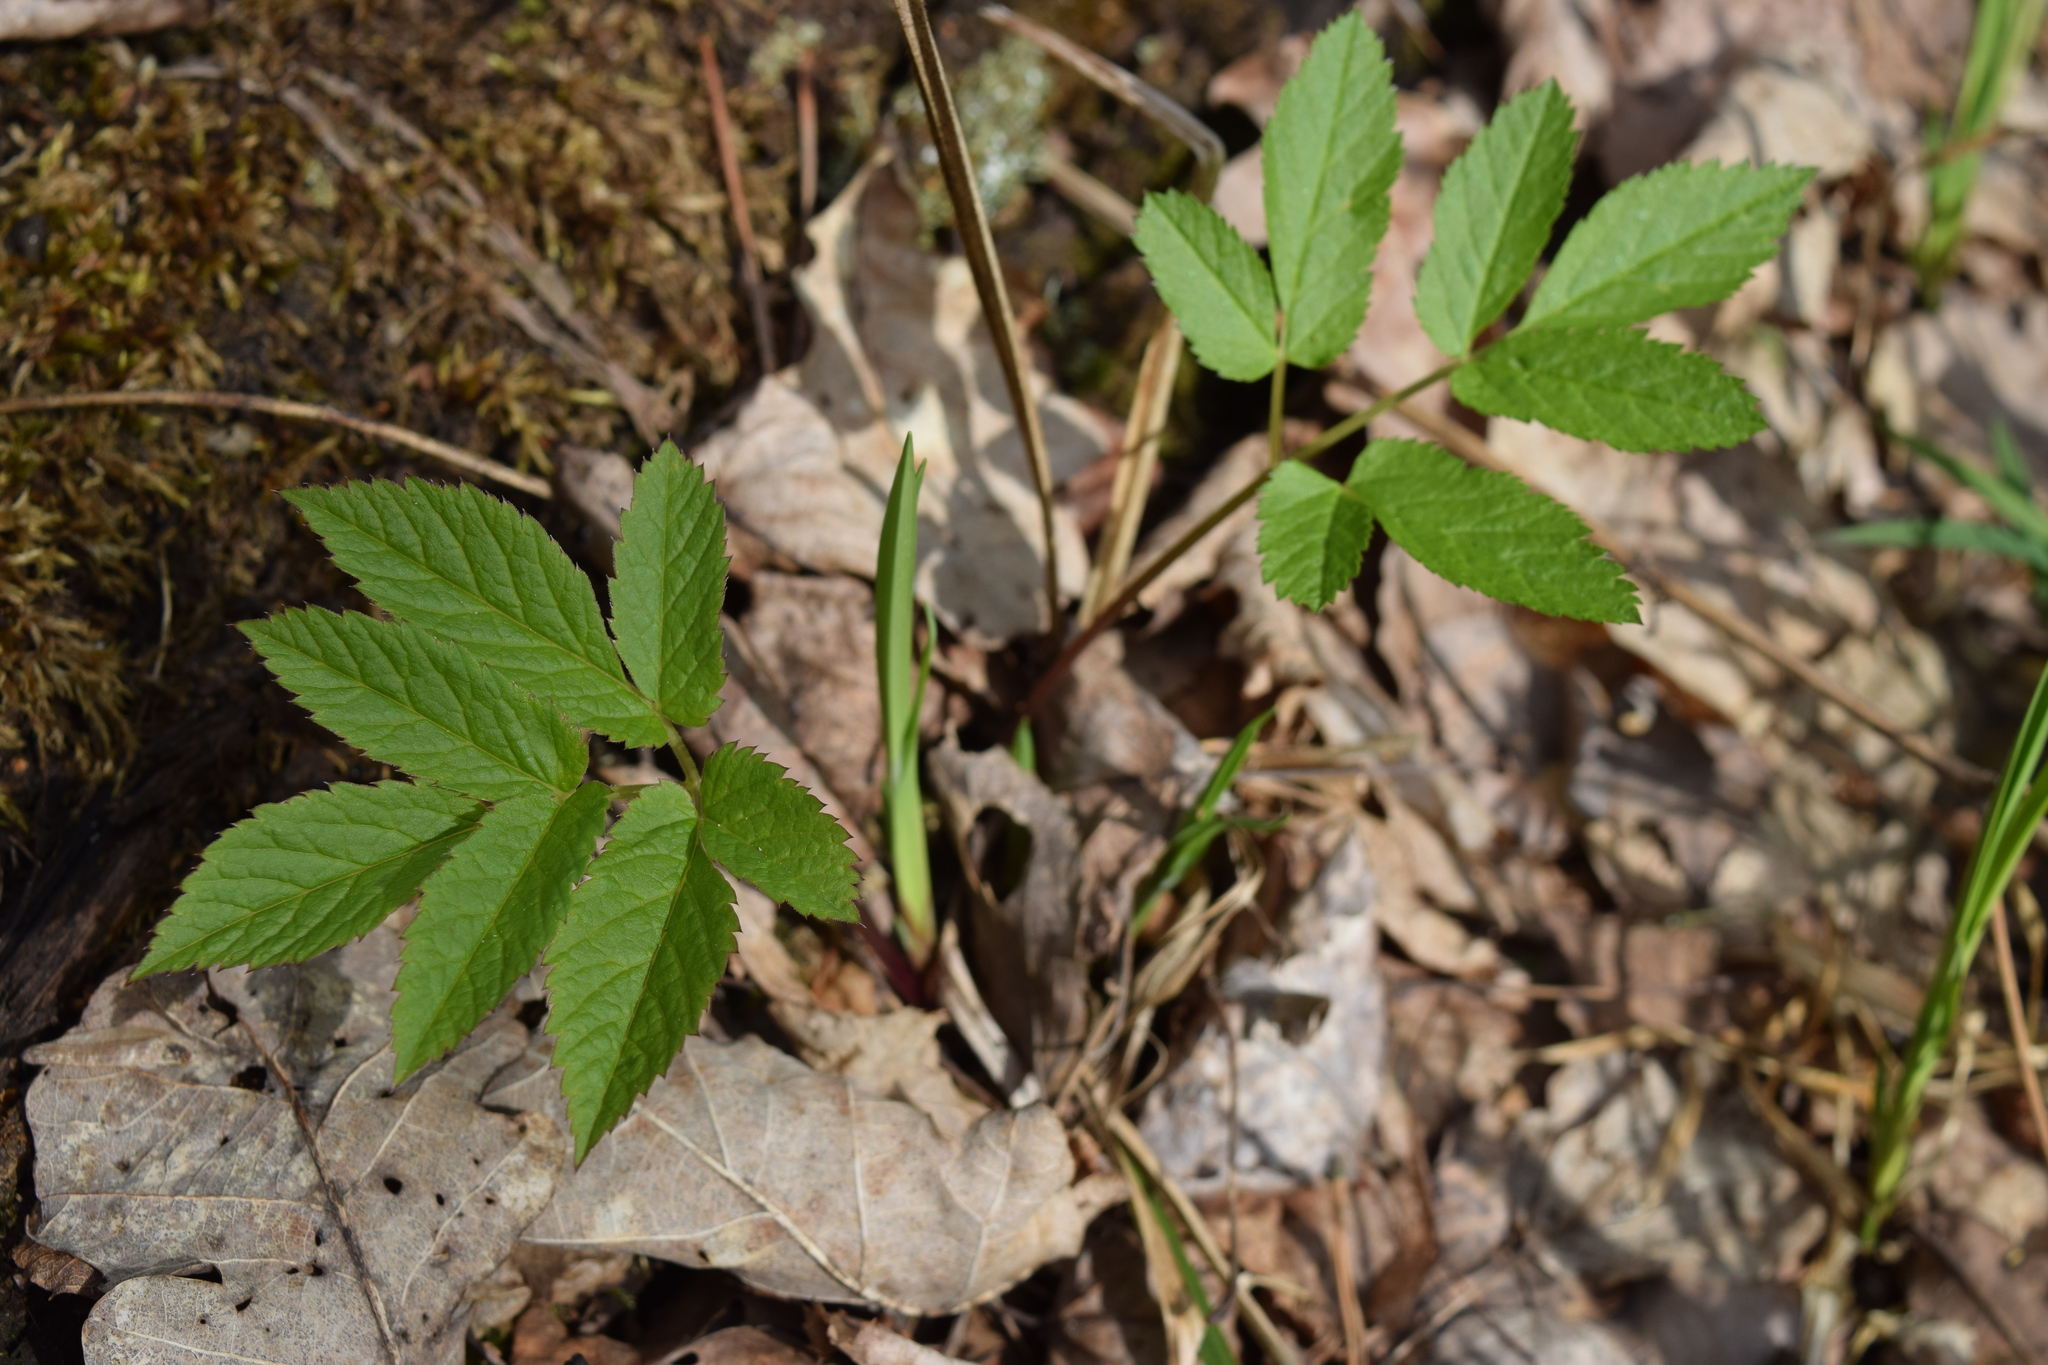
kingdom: Plantae
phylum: Tracheophyta
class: Magnoliopsida
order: Apiales
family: Apiaceae
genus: Aegopodium
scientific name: Aegopodium podagraria
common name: Ground-elder
